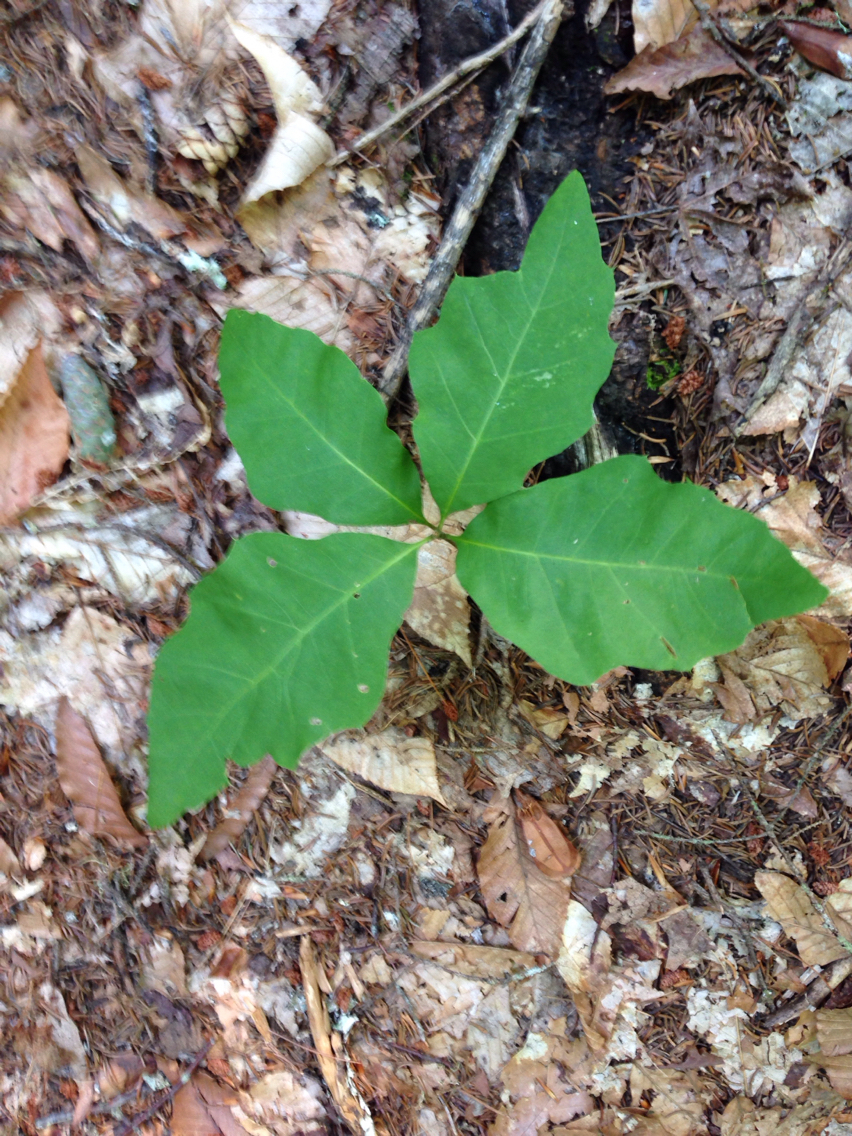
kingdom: Plantae
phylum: Tracheophyta
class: Magnoliopsida
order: Fagales
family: Fagaceae
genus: Quercus
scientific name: Quercus rubra
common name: Red oak
